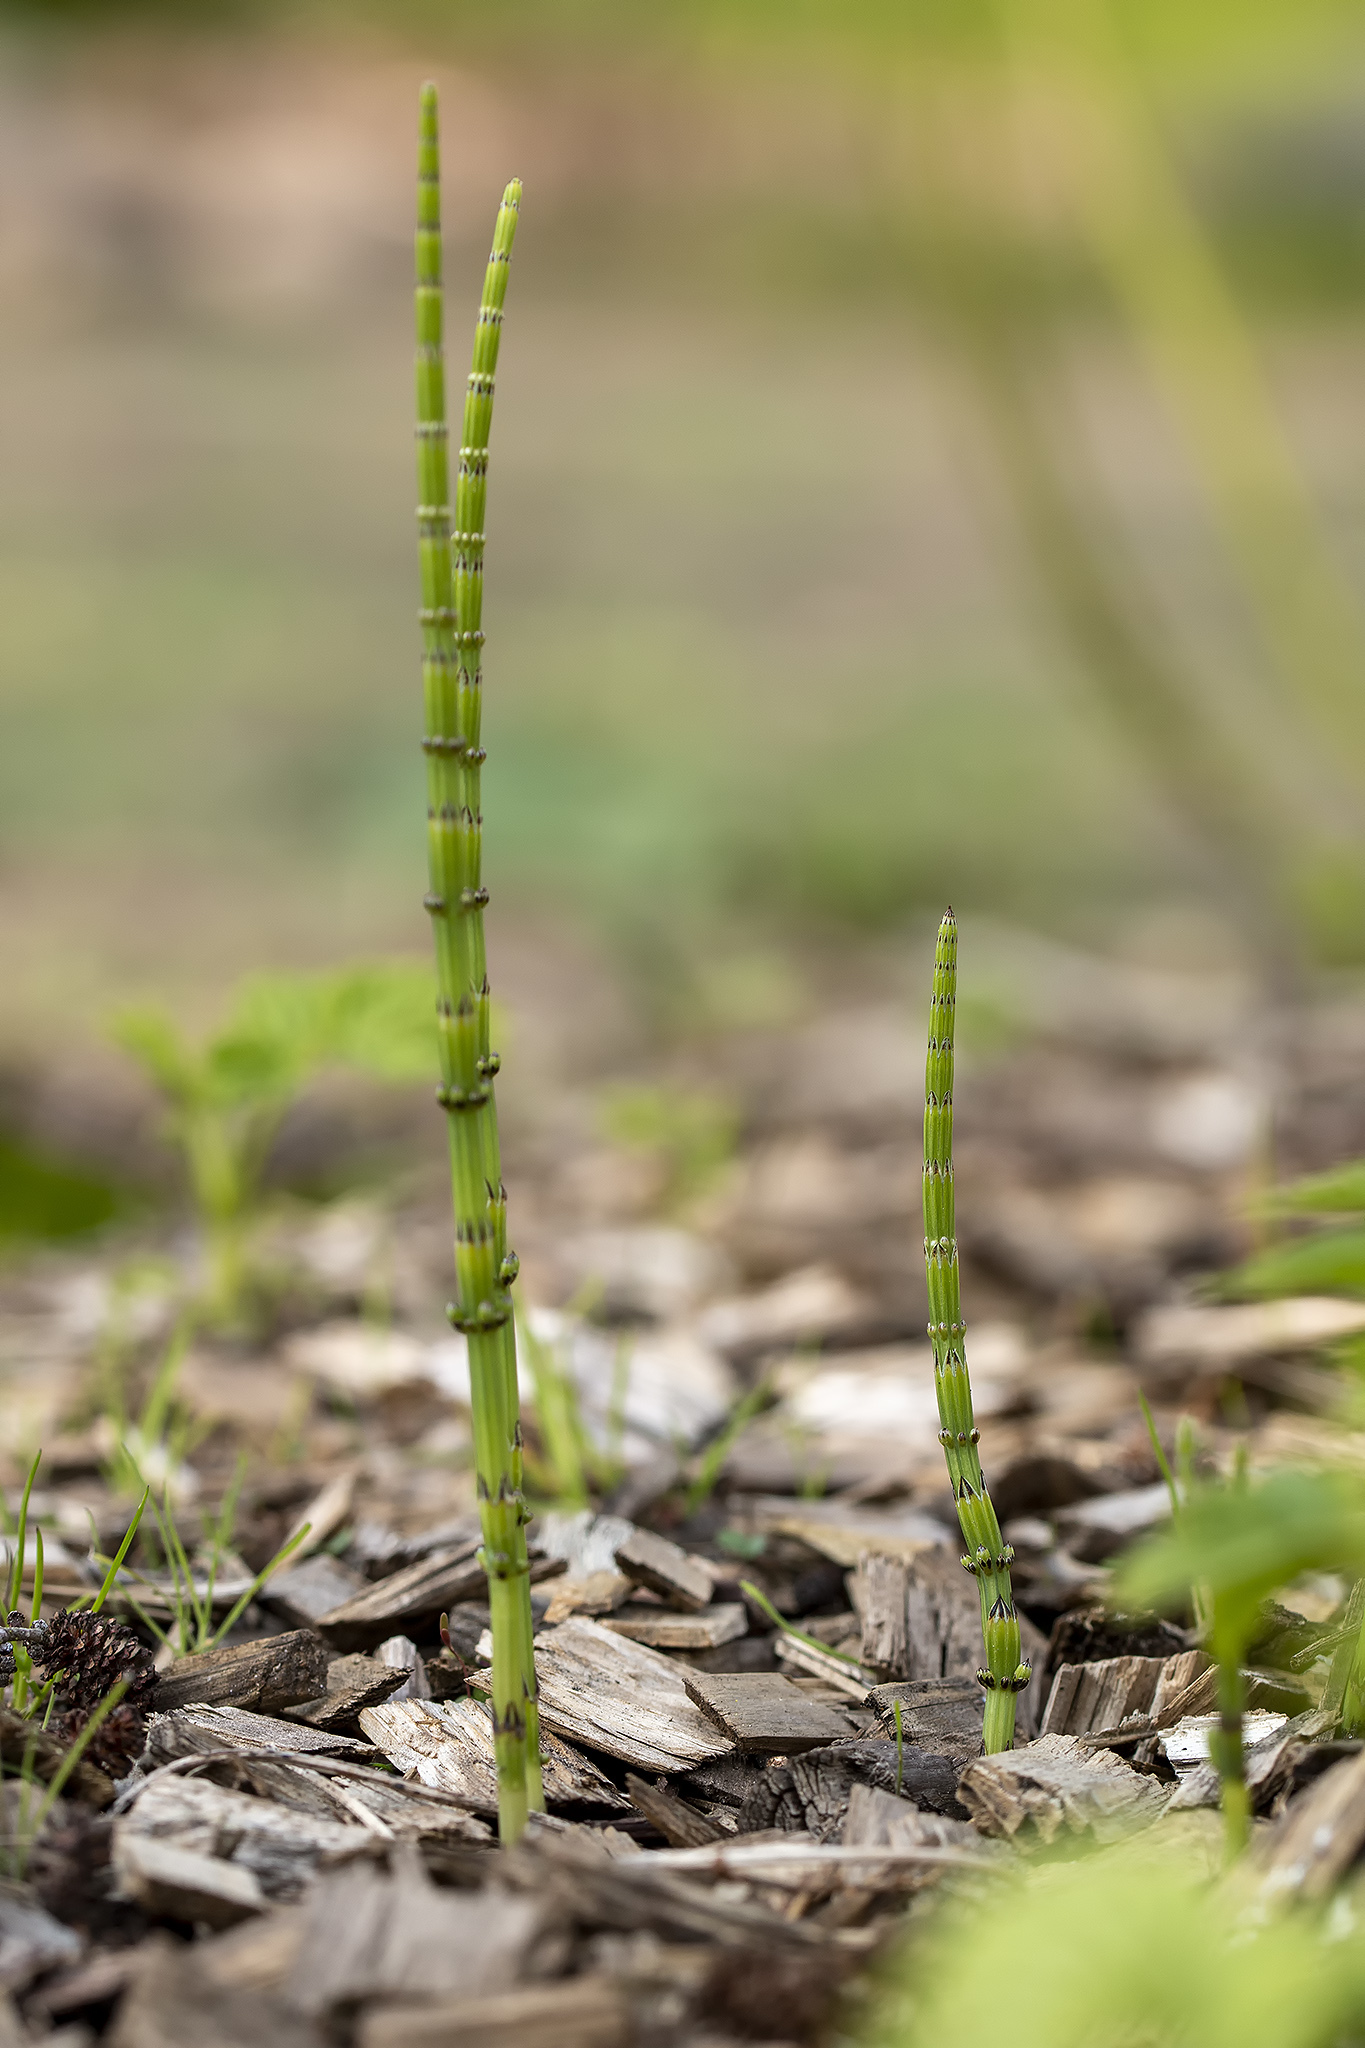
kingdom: Plantae
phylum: Tracheophyta
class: Polypodiopsida
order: Equisetales
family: Equisetaceae
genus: Equisetum
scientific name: Equisetum palustre
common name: Marsh horsetail
